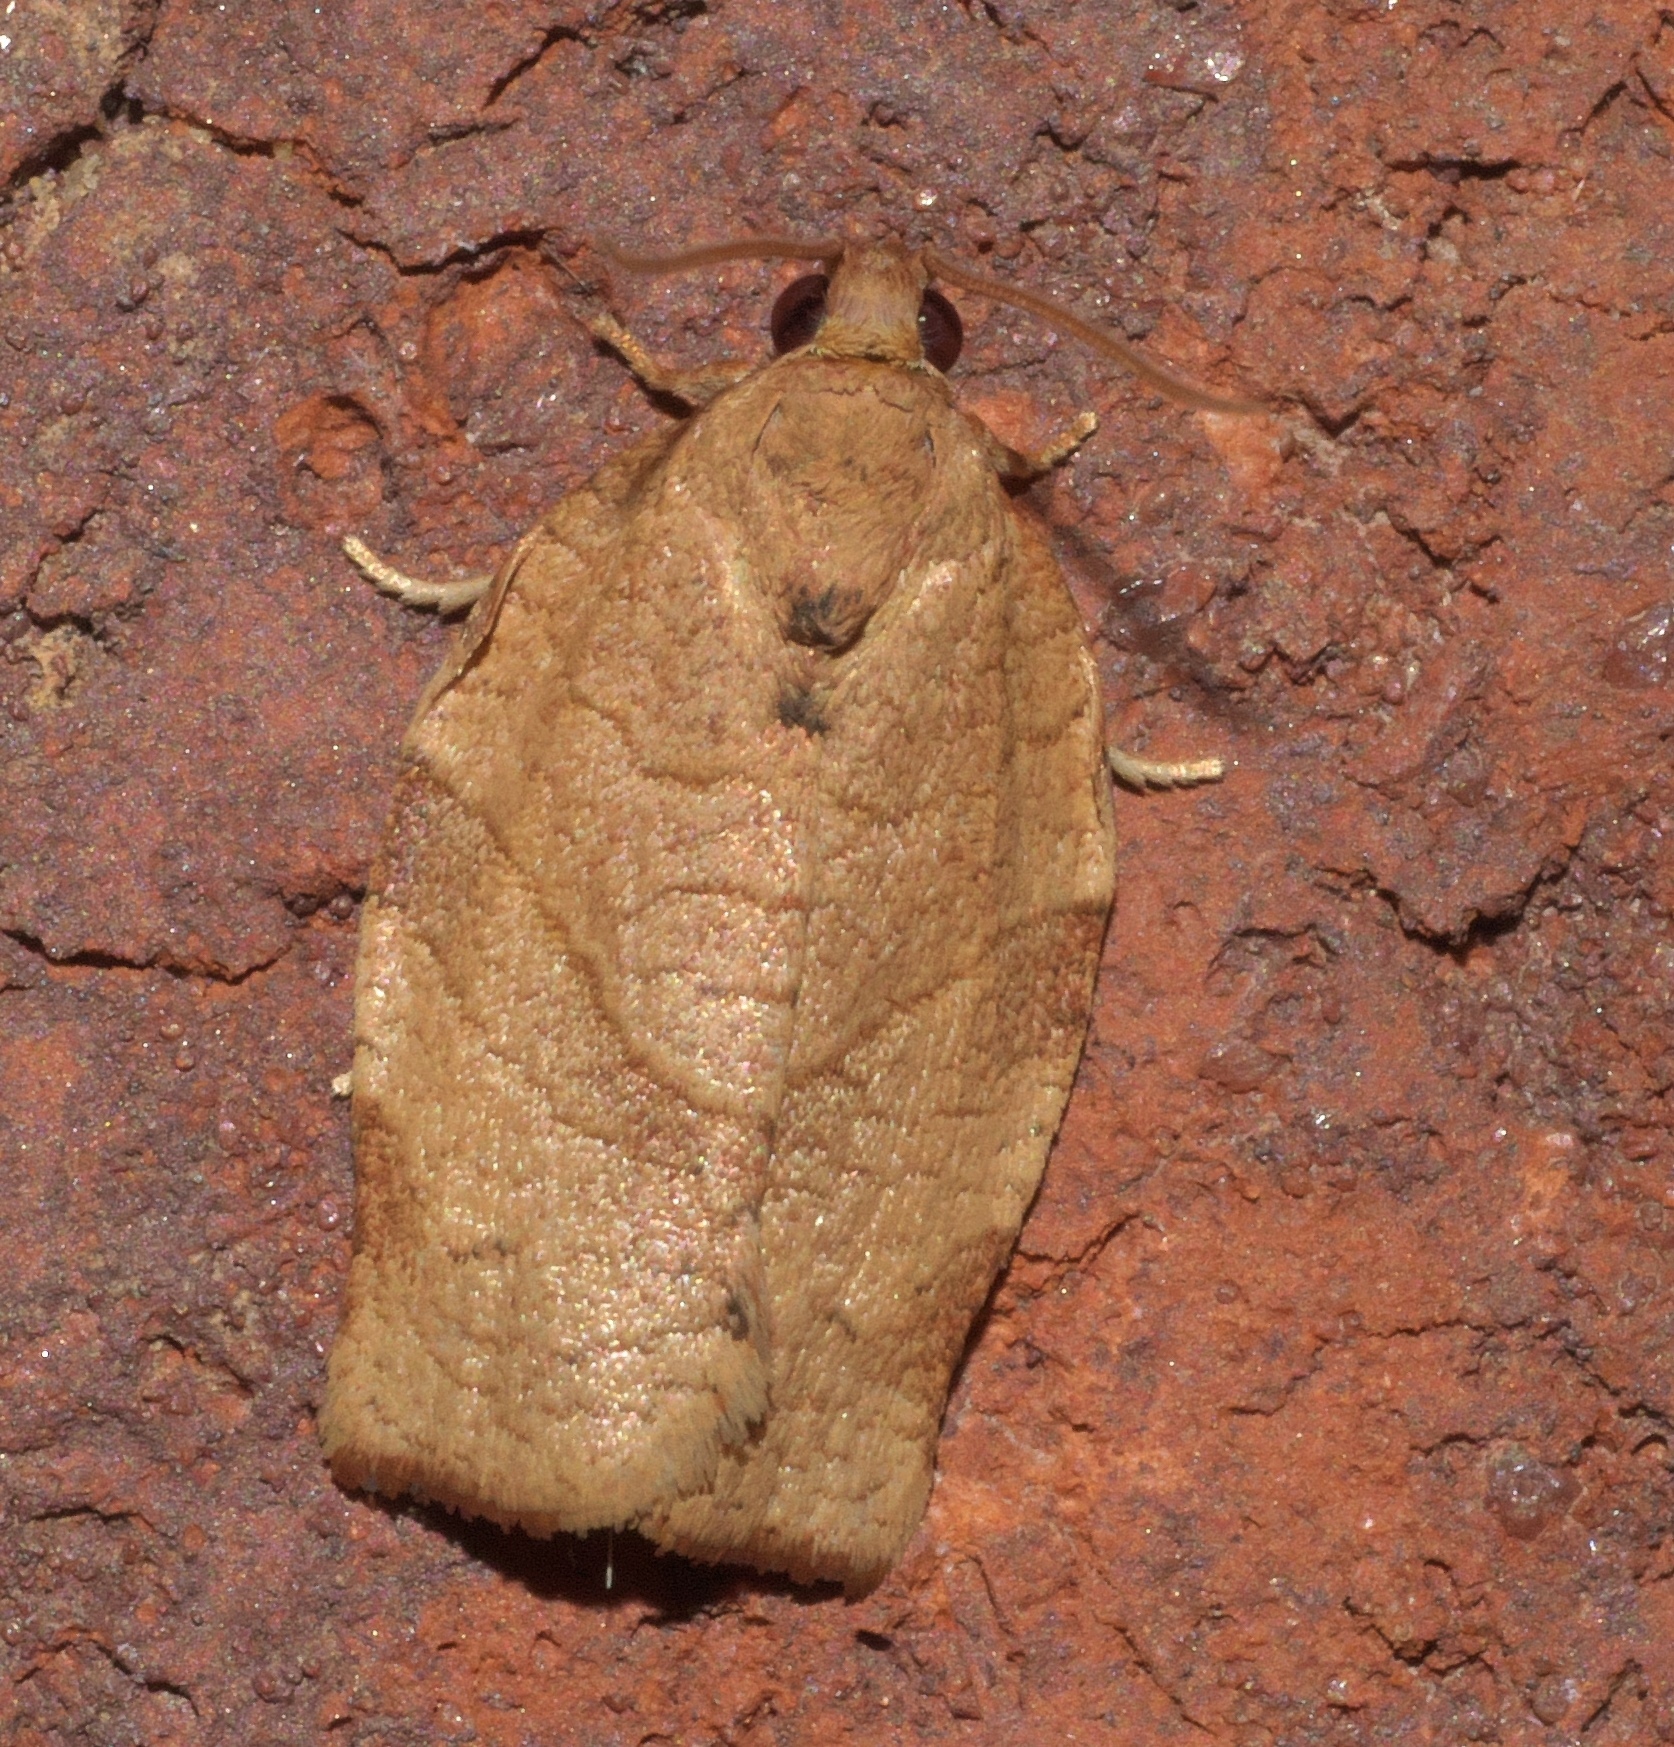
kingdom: Animalia
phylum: Arthropoda
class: Insecta
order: Lepidoptera
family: Tortricidae
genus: Choristoneura
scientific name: Choristoneura rosaceana
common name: Oblique-banded leafroller moth
